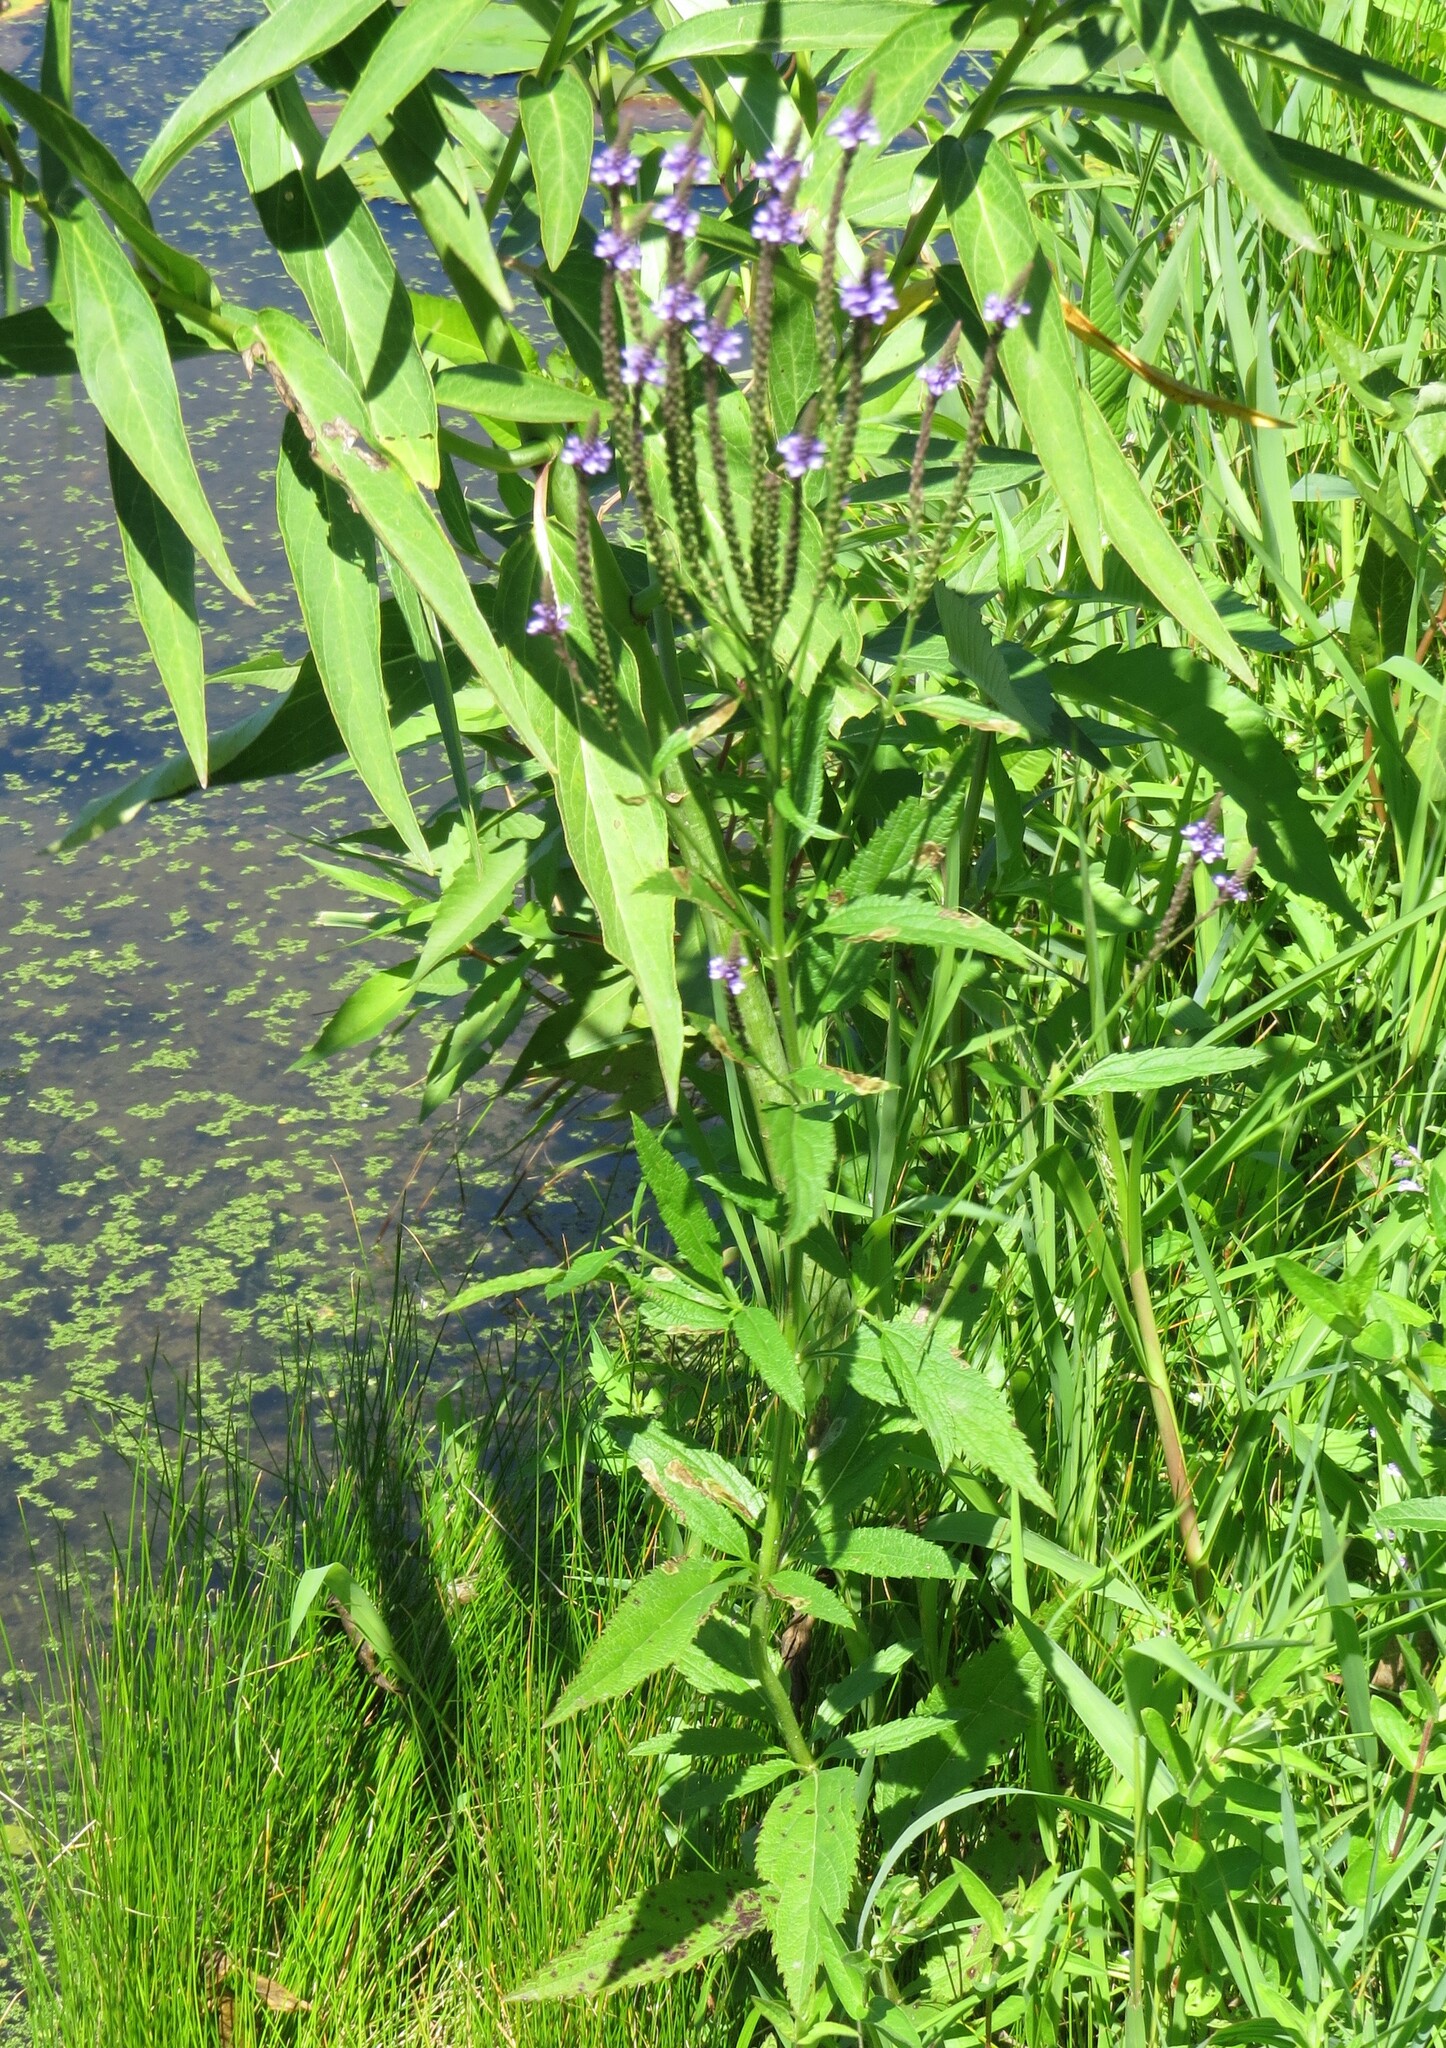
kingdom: Plantae
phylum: Tracheophyta
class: Magnoliopsida
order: Lamiales
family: Verbenaceae
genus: Verbena
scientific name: Verbena hastata
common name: American blue vervain
